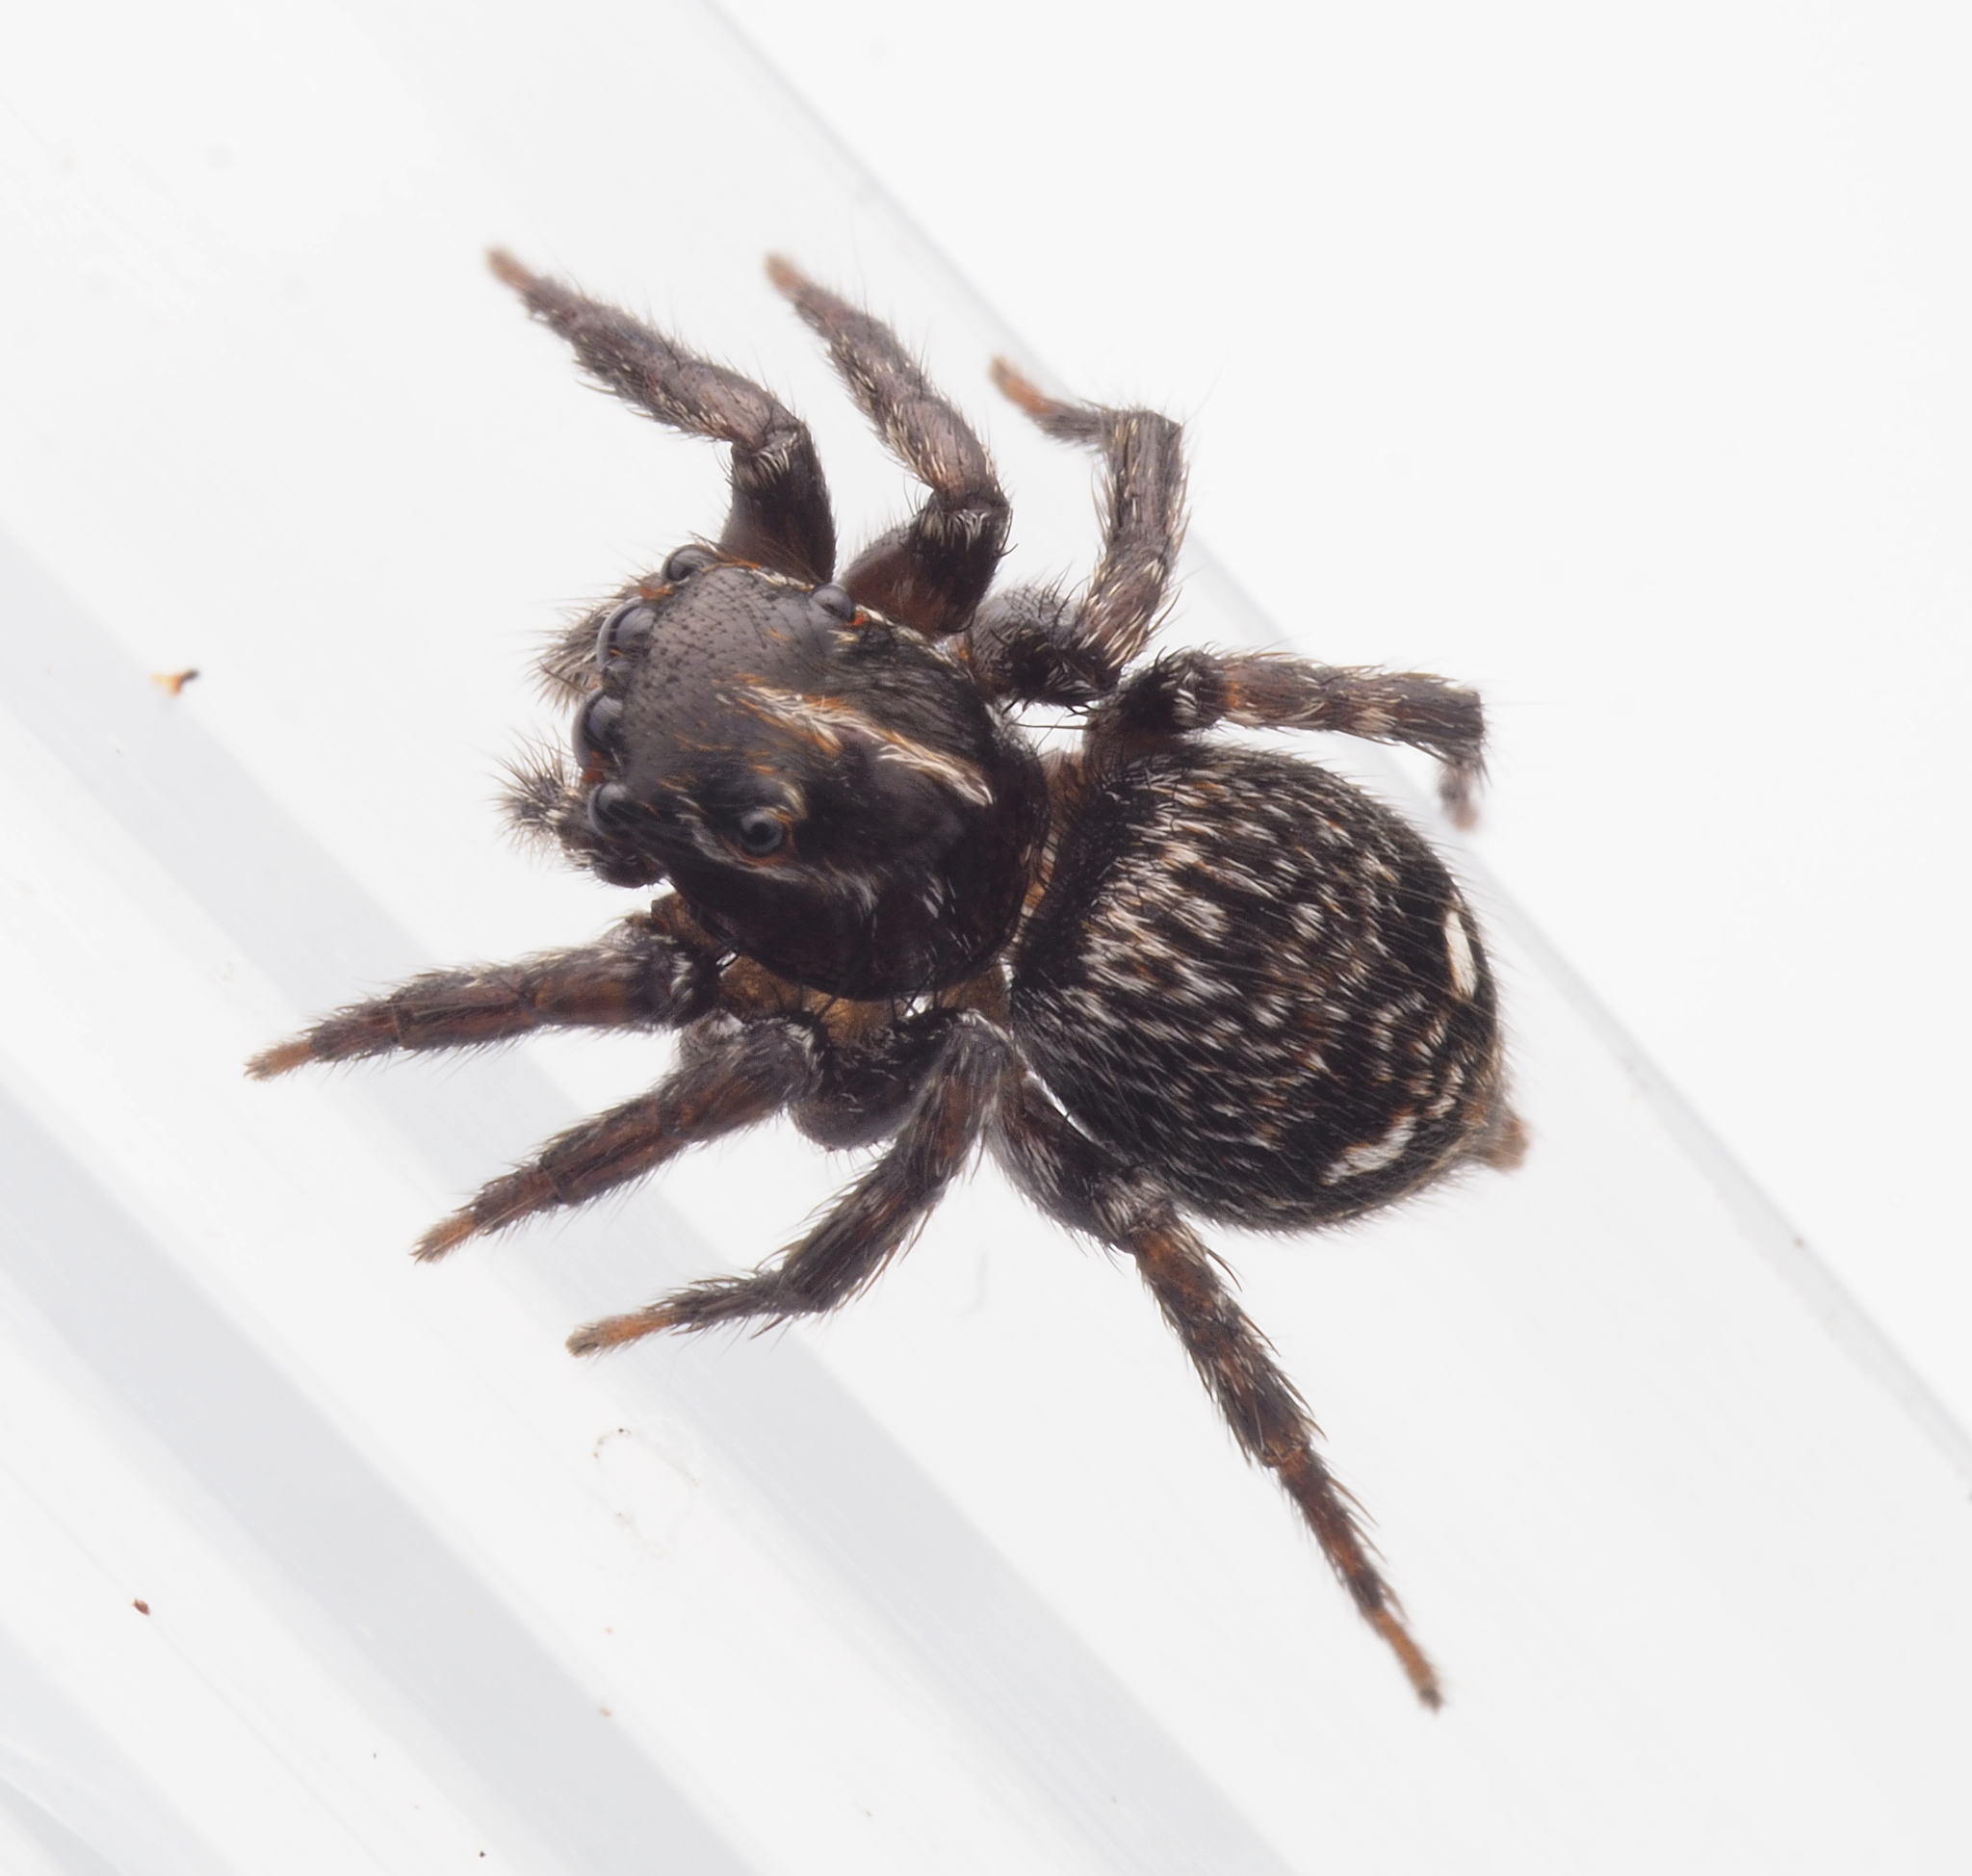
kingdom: Animalia
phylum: Arthropoda
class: Arachnida
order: Araneae
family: Salticidae
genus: Saitis
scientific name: Saitis virgatus
